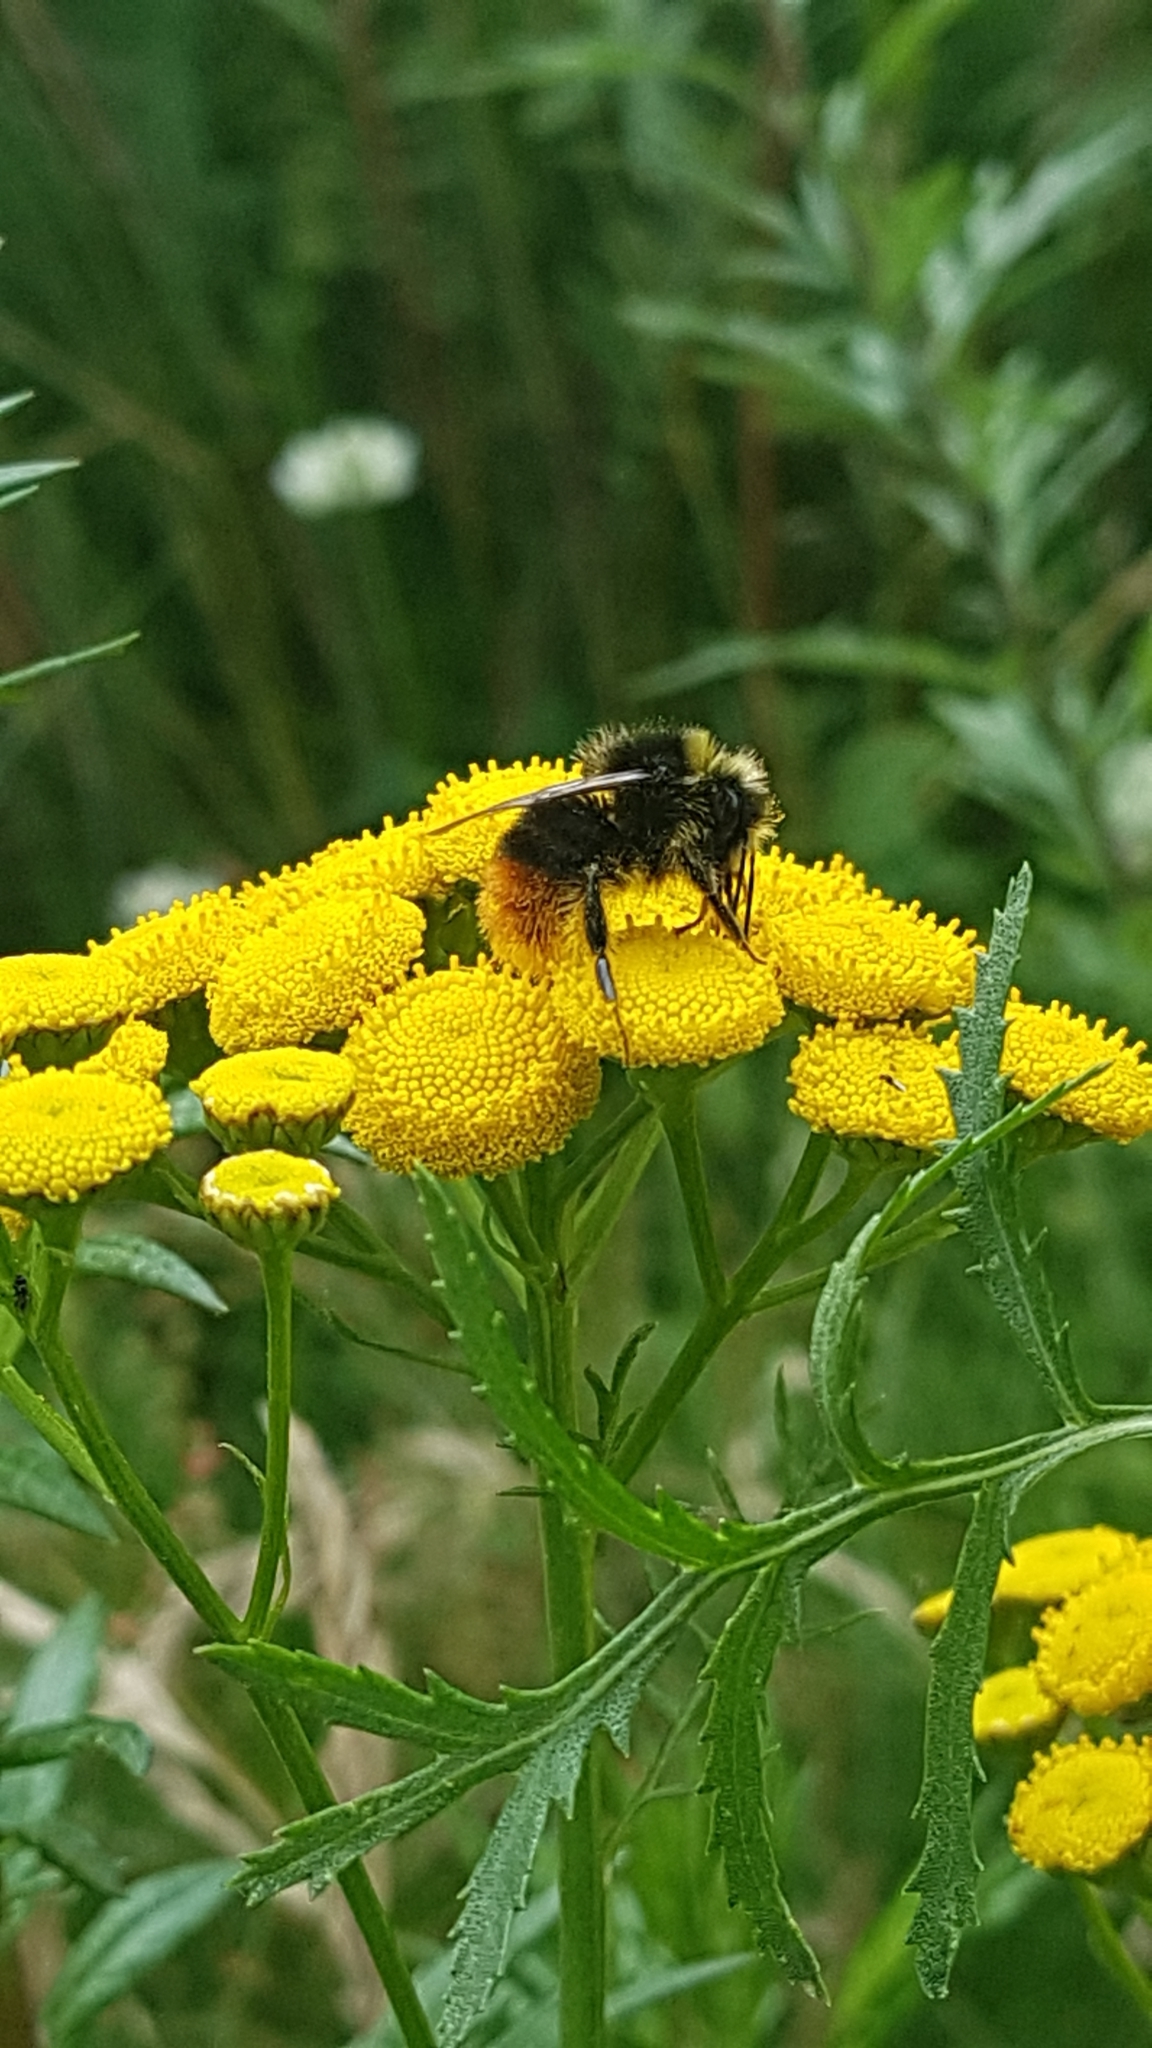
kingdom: Animalia
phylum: Arthropoda
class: Insecta
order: Hymenoptera
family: Apidae
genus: Bombus
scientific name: Bombus lapidarius
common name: Large red-tailed humble-bee
